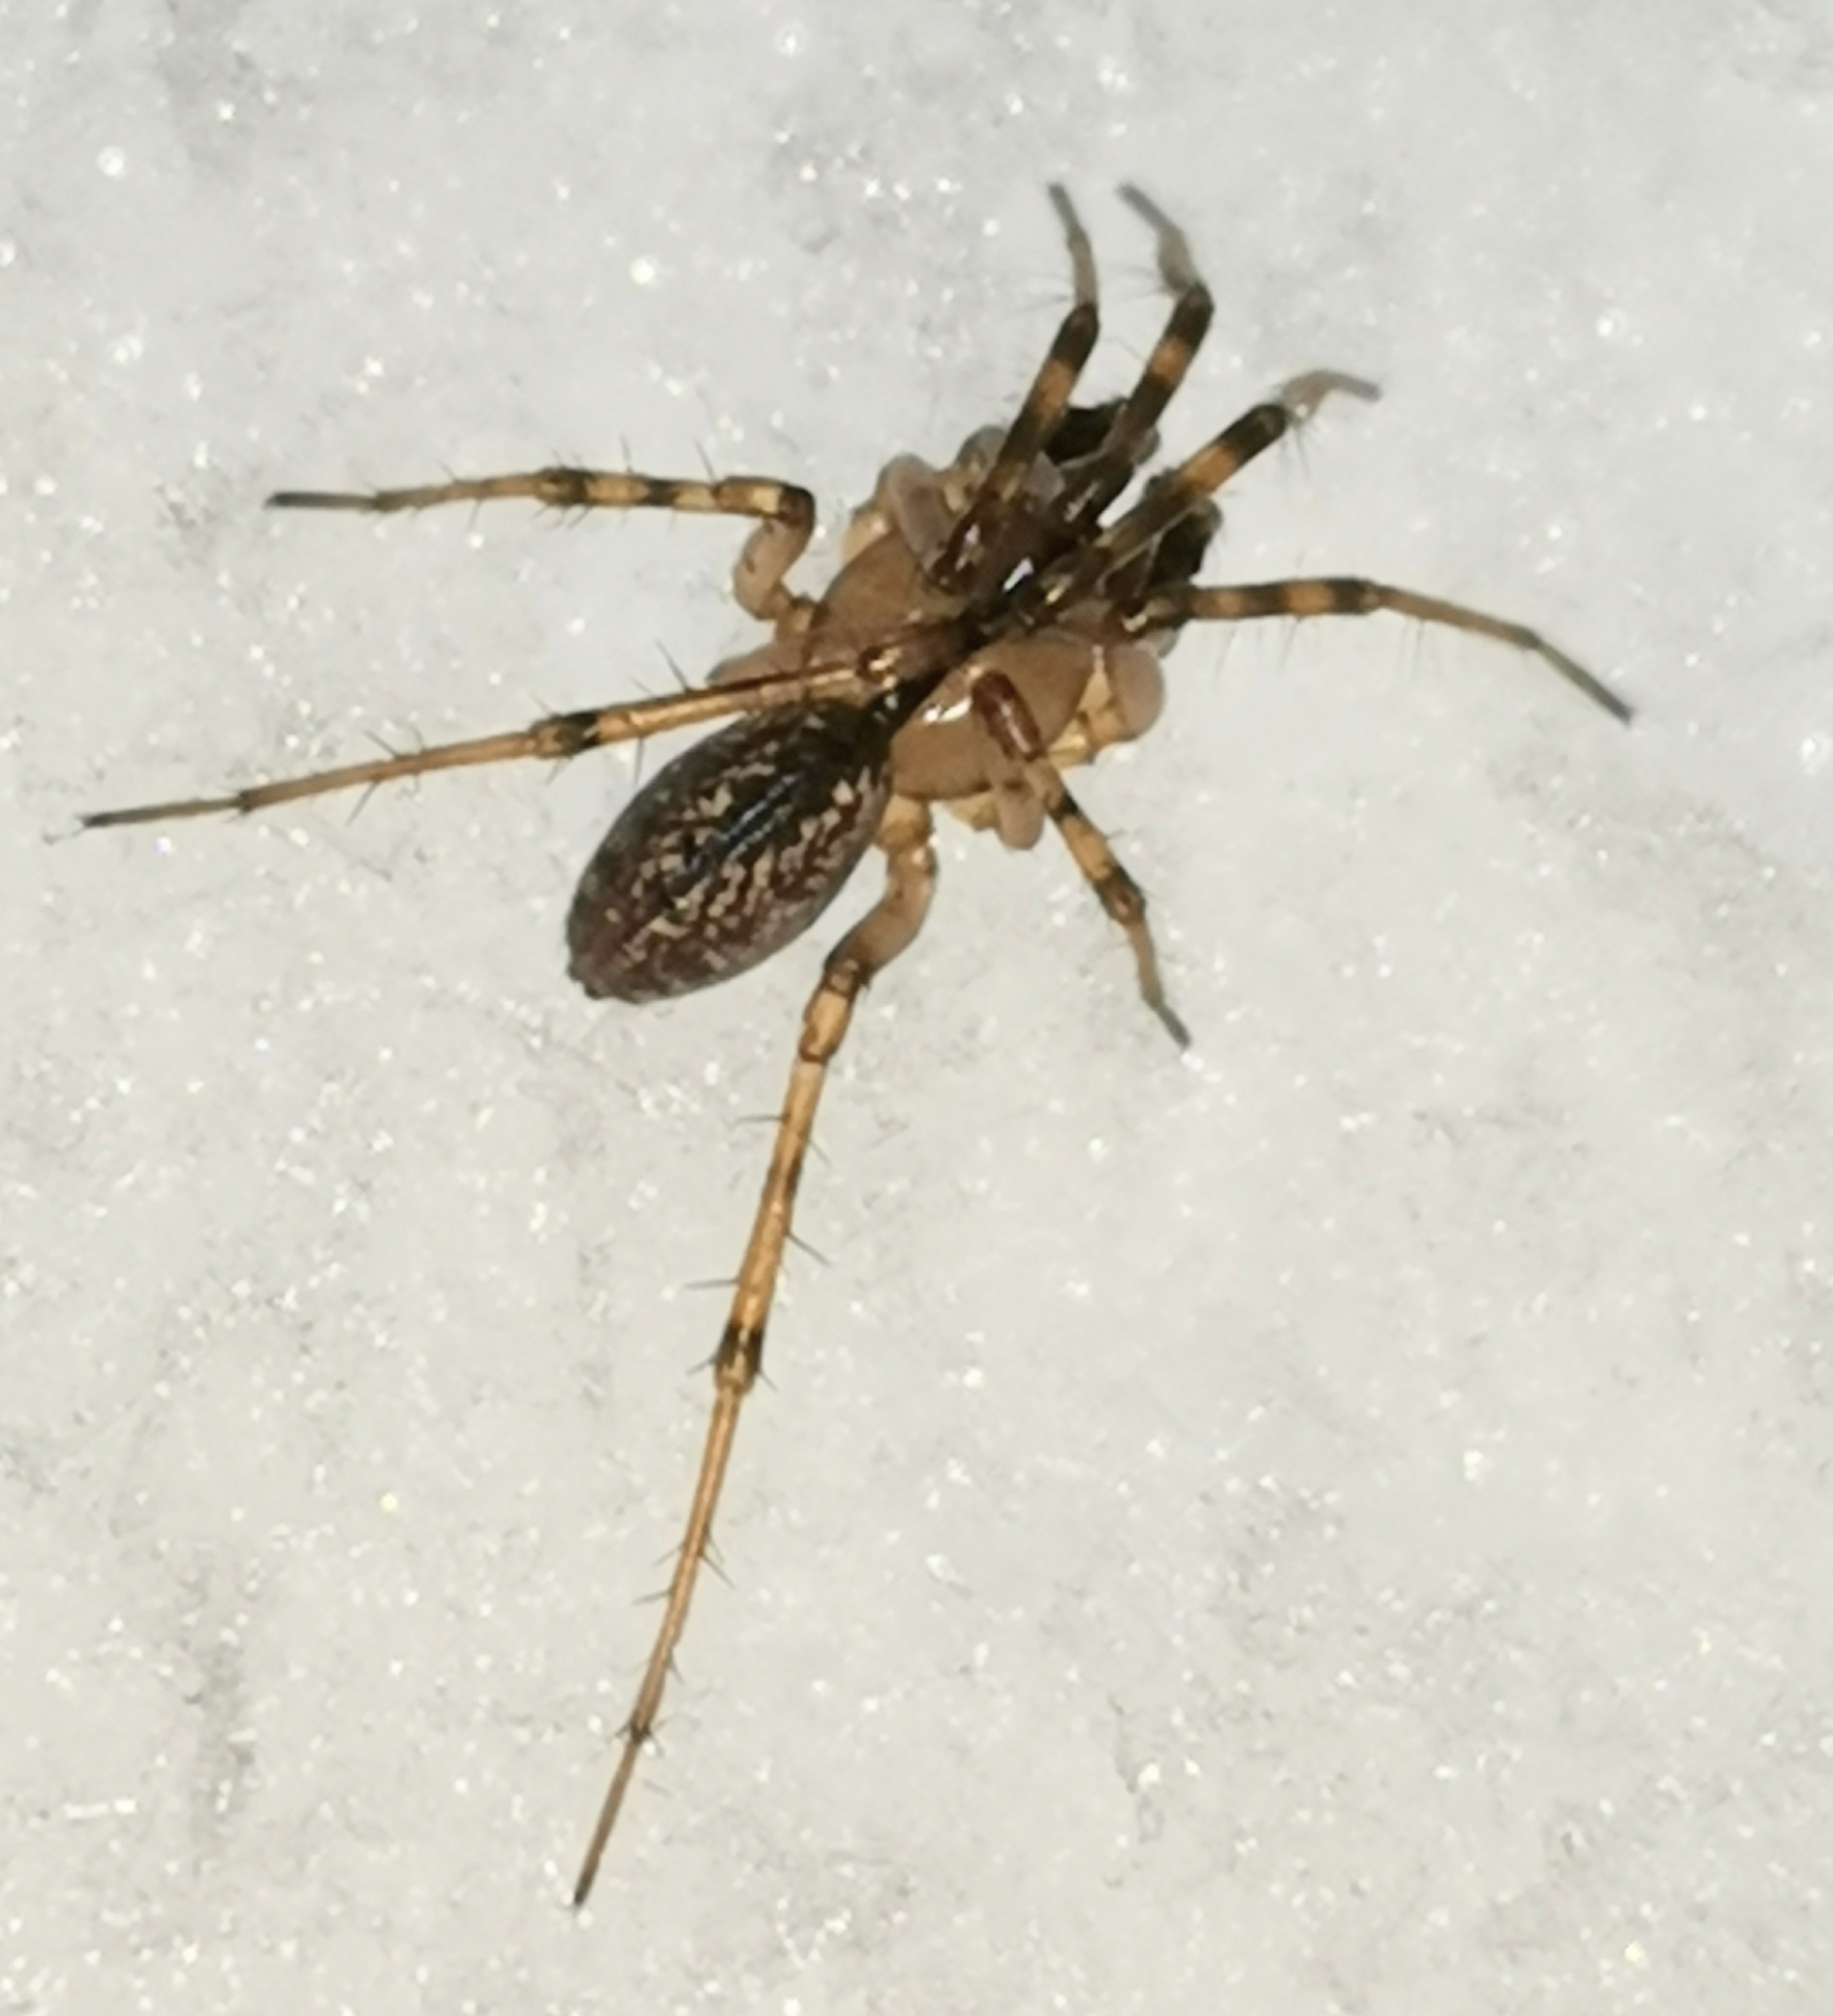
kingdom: Animalia
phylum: Arthropoda
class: Arachnida
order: Araneae
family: Linyphiidae
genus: Stemonyphantes
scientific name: Stemonyphantes lineatus
